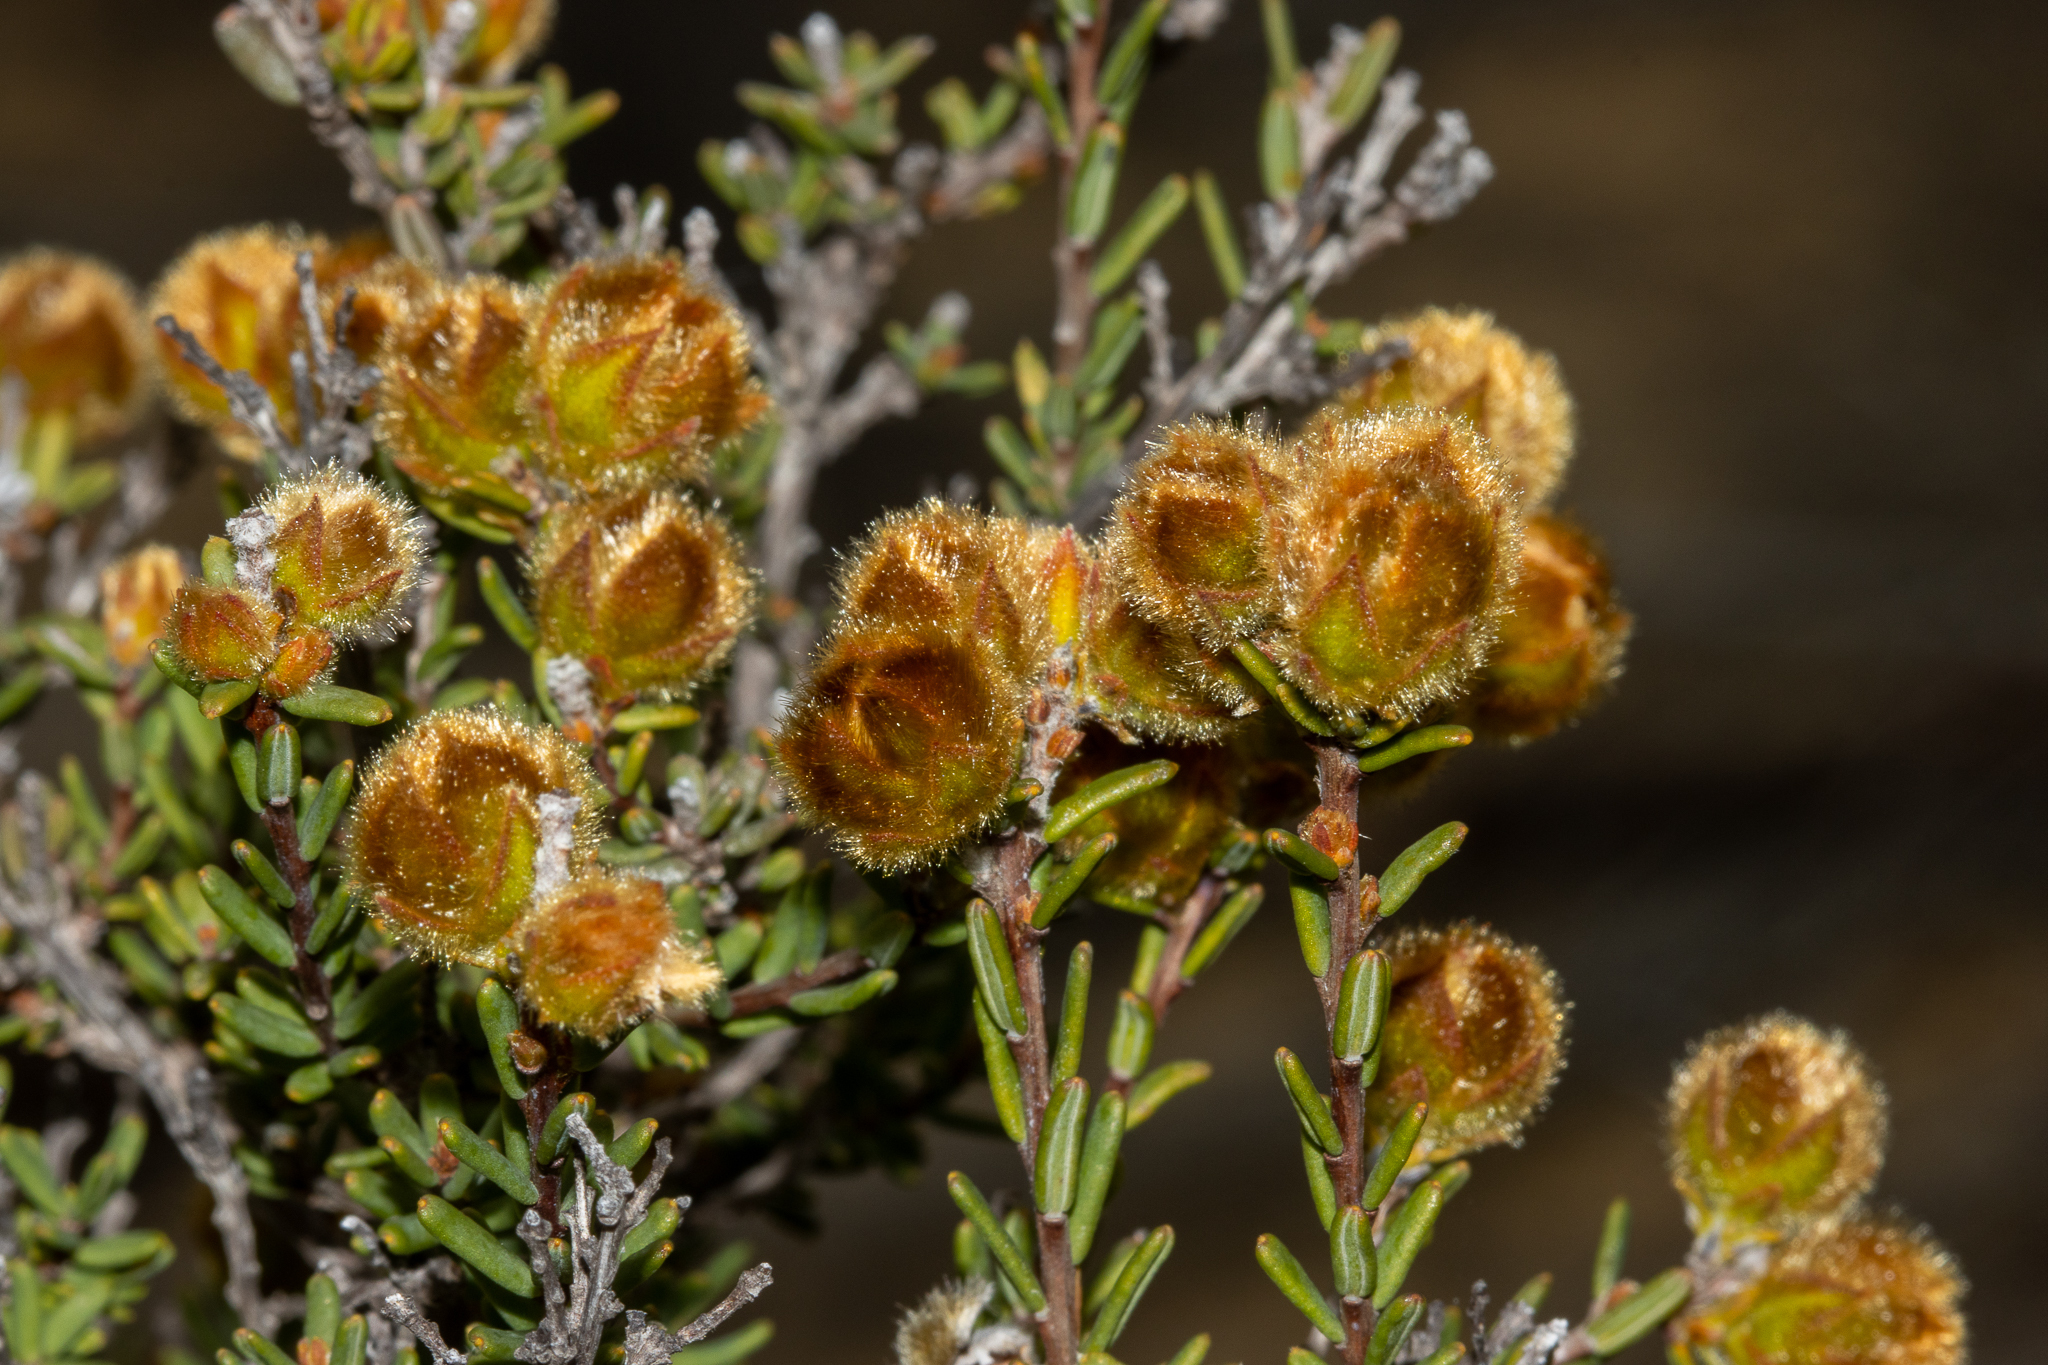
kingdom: Plantae
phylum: Tracheophyta
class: Magnoliopsida
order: Dilleniales
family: Dilleniaceae
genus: Hibbertia
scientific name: Hibbertia drummondii
